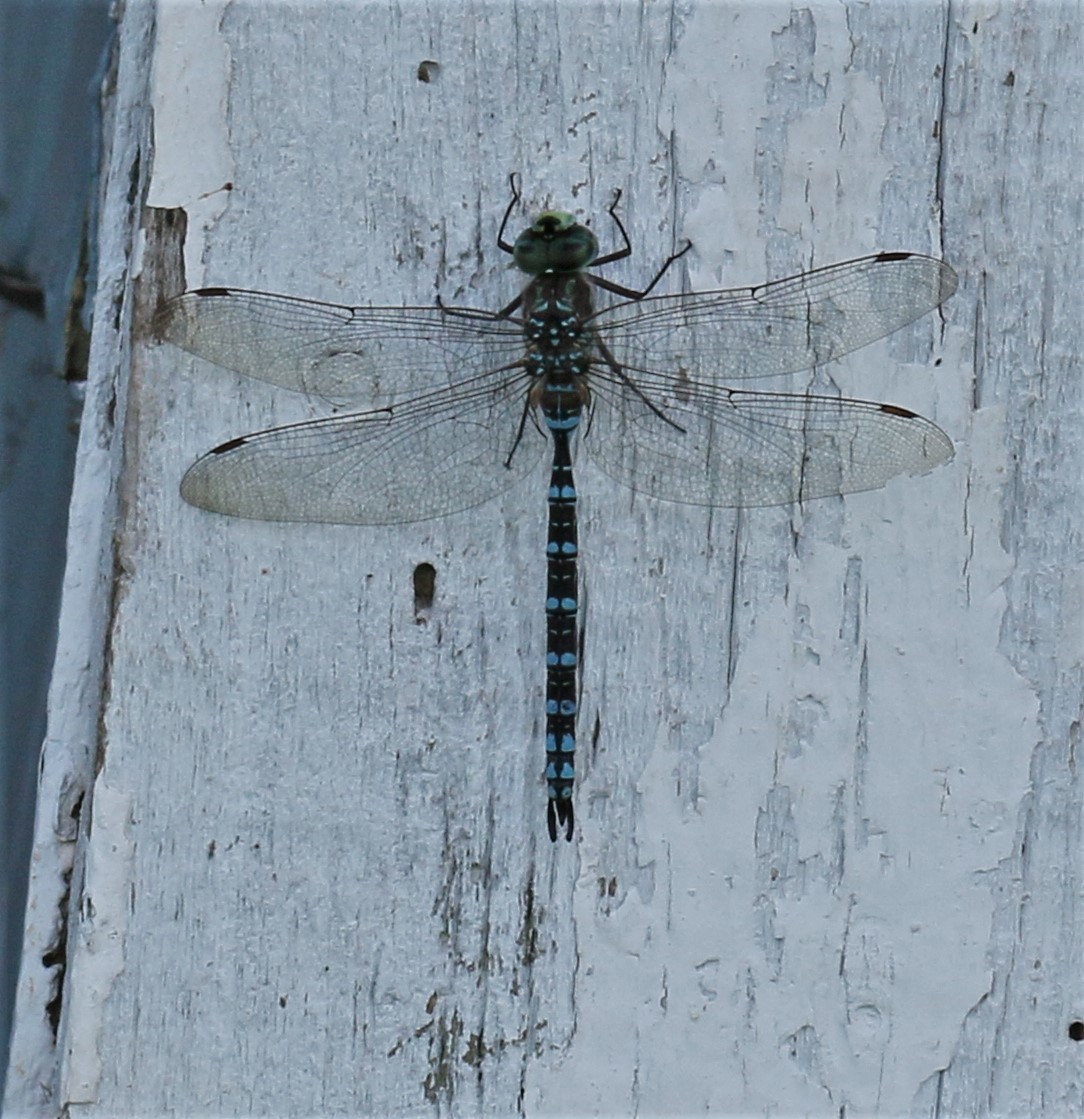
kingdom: Animalia
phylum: Arthropoda
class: Insecta
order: Odonata
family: Aeshnidae
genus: Aeshna
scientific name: Aeshna canadensis
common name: Canada darner
